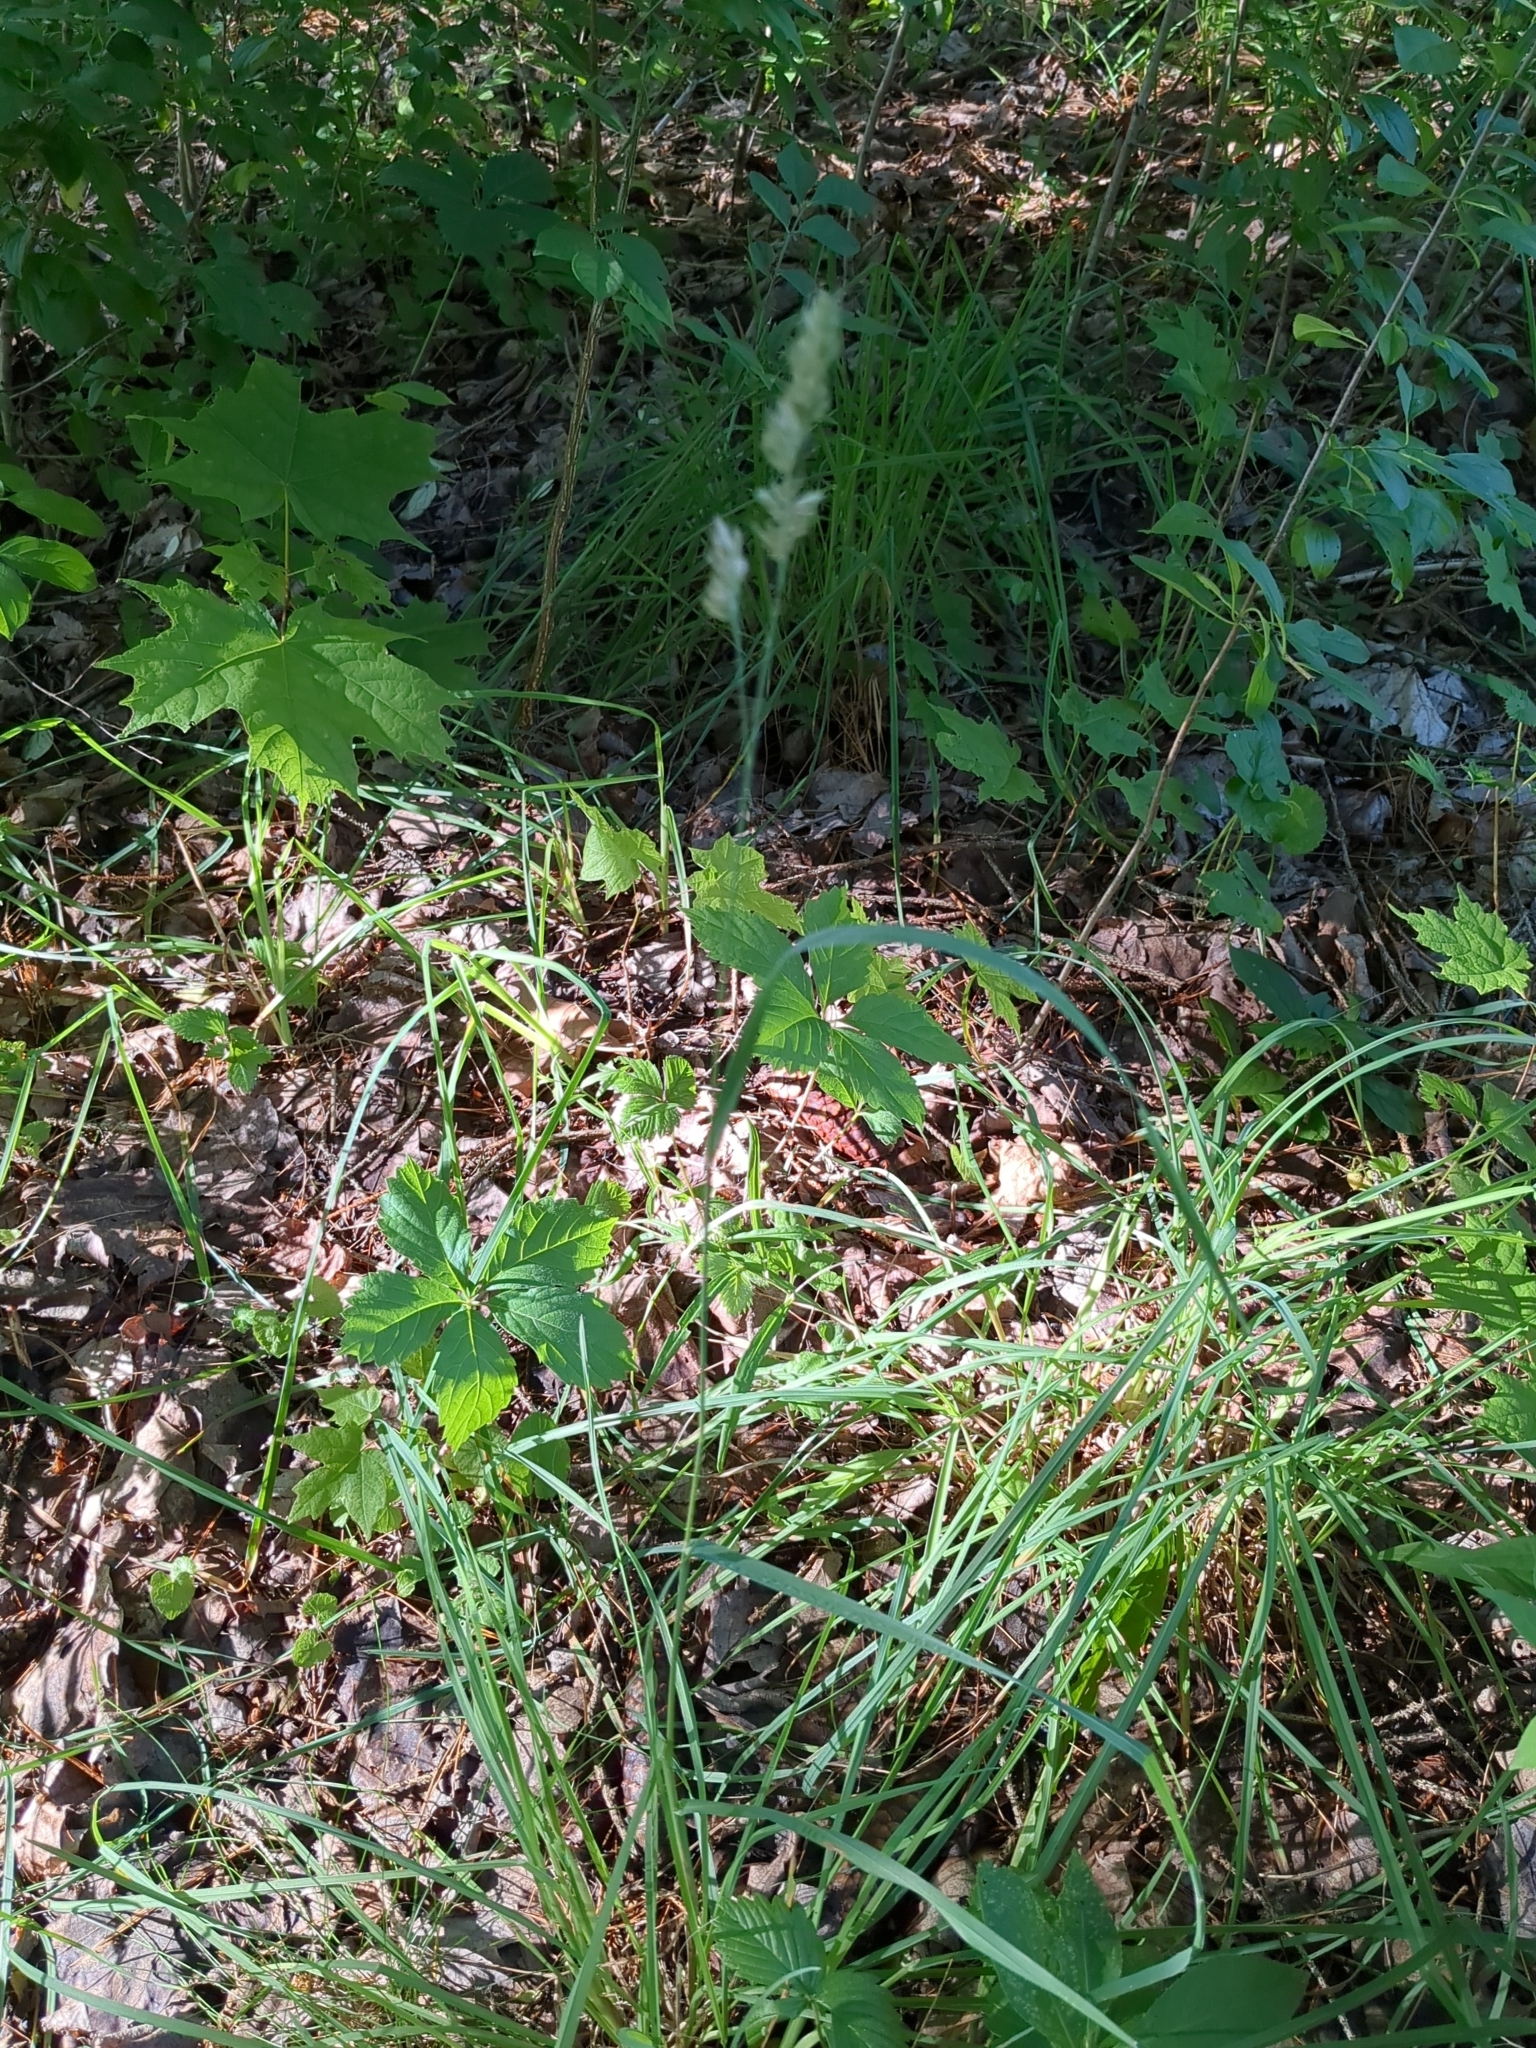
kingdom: Plantae
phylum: Tracheophyta
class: Liliopsida
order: Poales
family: Poaceae
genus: Dactylis
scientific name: Dactylis glomerata
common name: Orchardgrass
